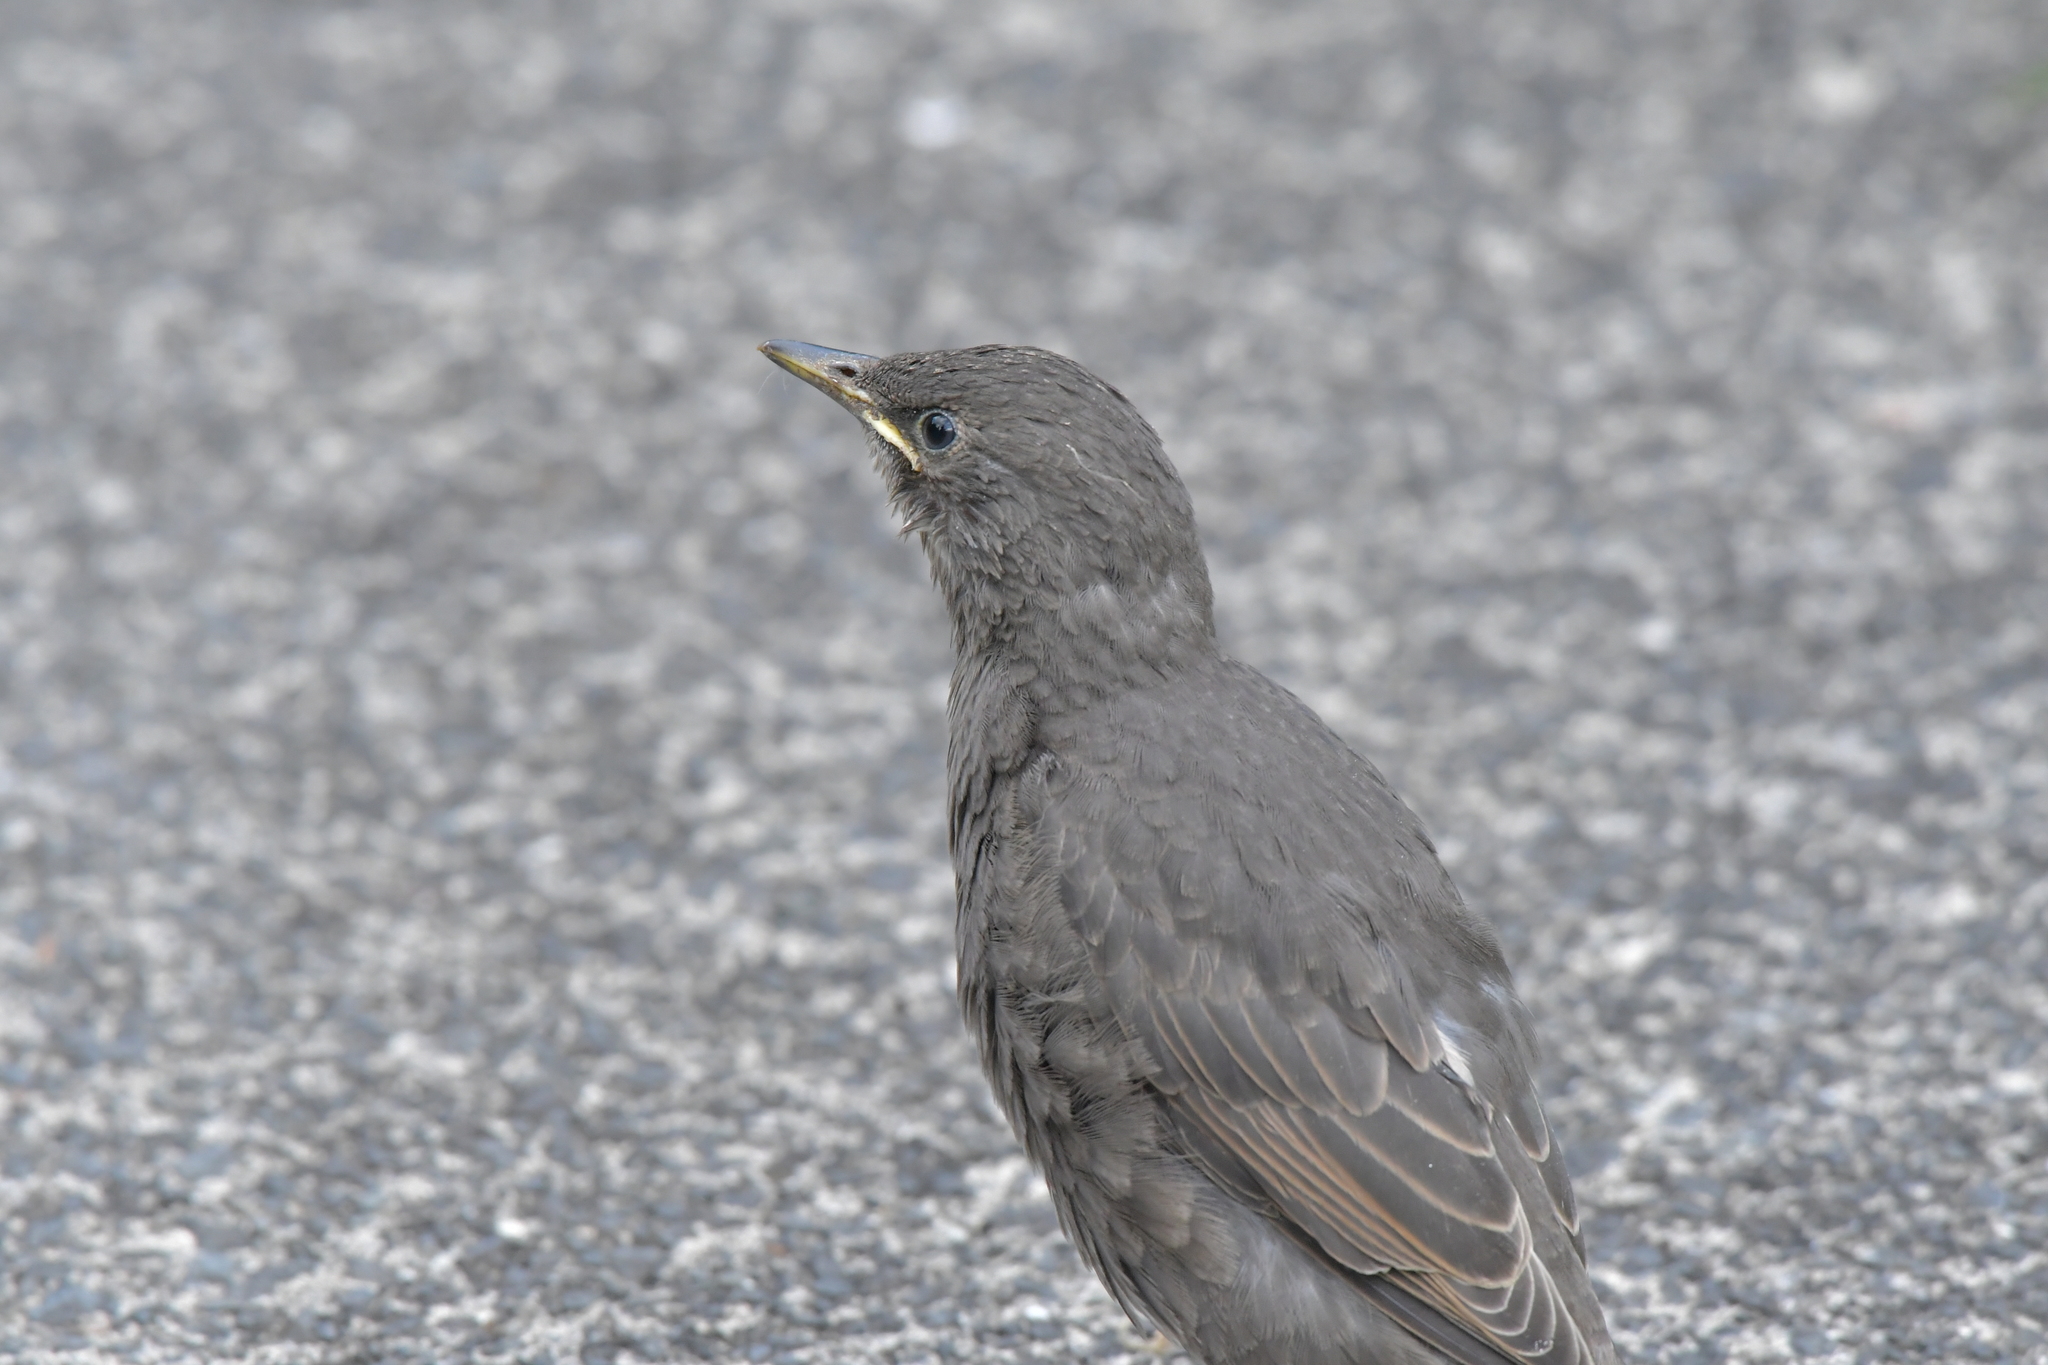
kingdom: Animalia
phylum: Chordata
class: Aves
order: Passeriformes
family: Sturnidae
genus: Sturnus
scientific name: Sturnus vulgaris
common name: Common starling
